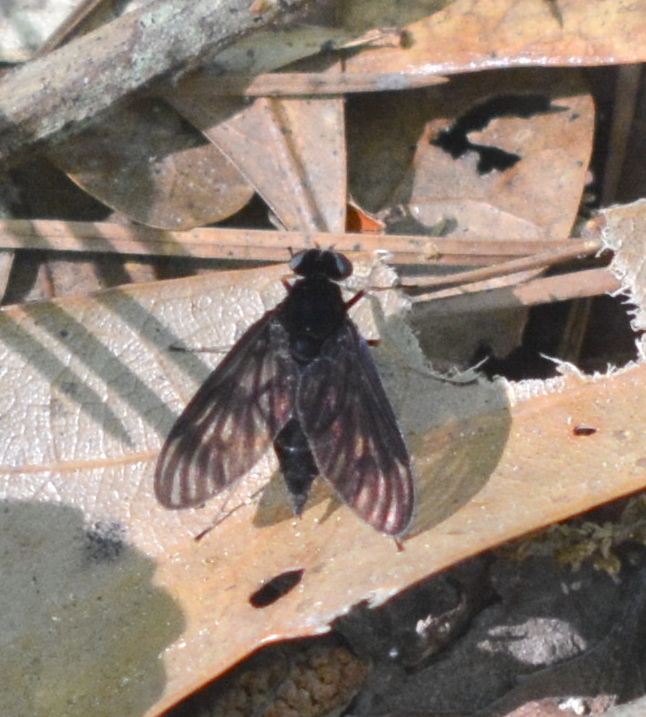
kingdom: Animalia
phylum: Arthropoda
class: Insecta
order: Diptera
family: Rhagionidae
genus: Chrysopilus
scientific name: Chrysopilus velutinus
